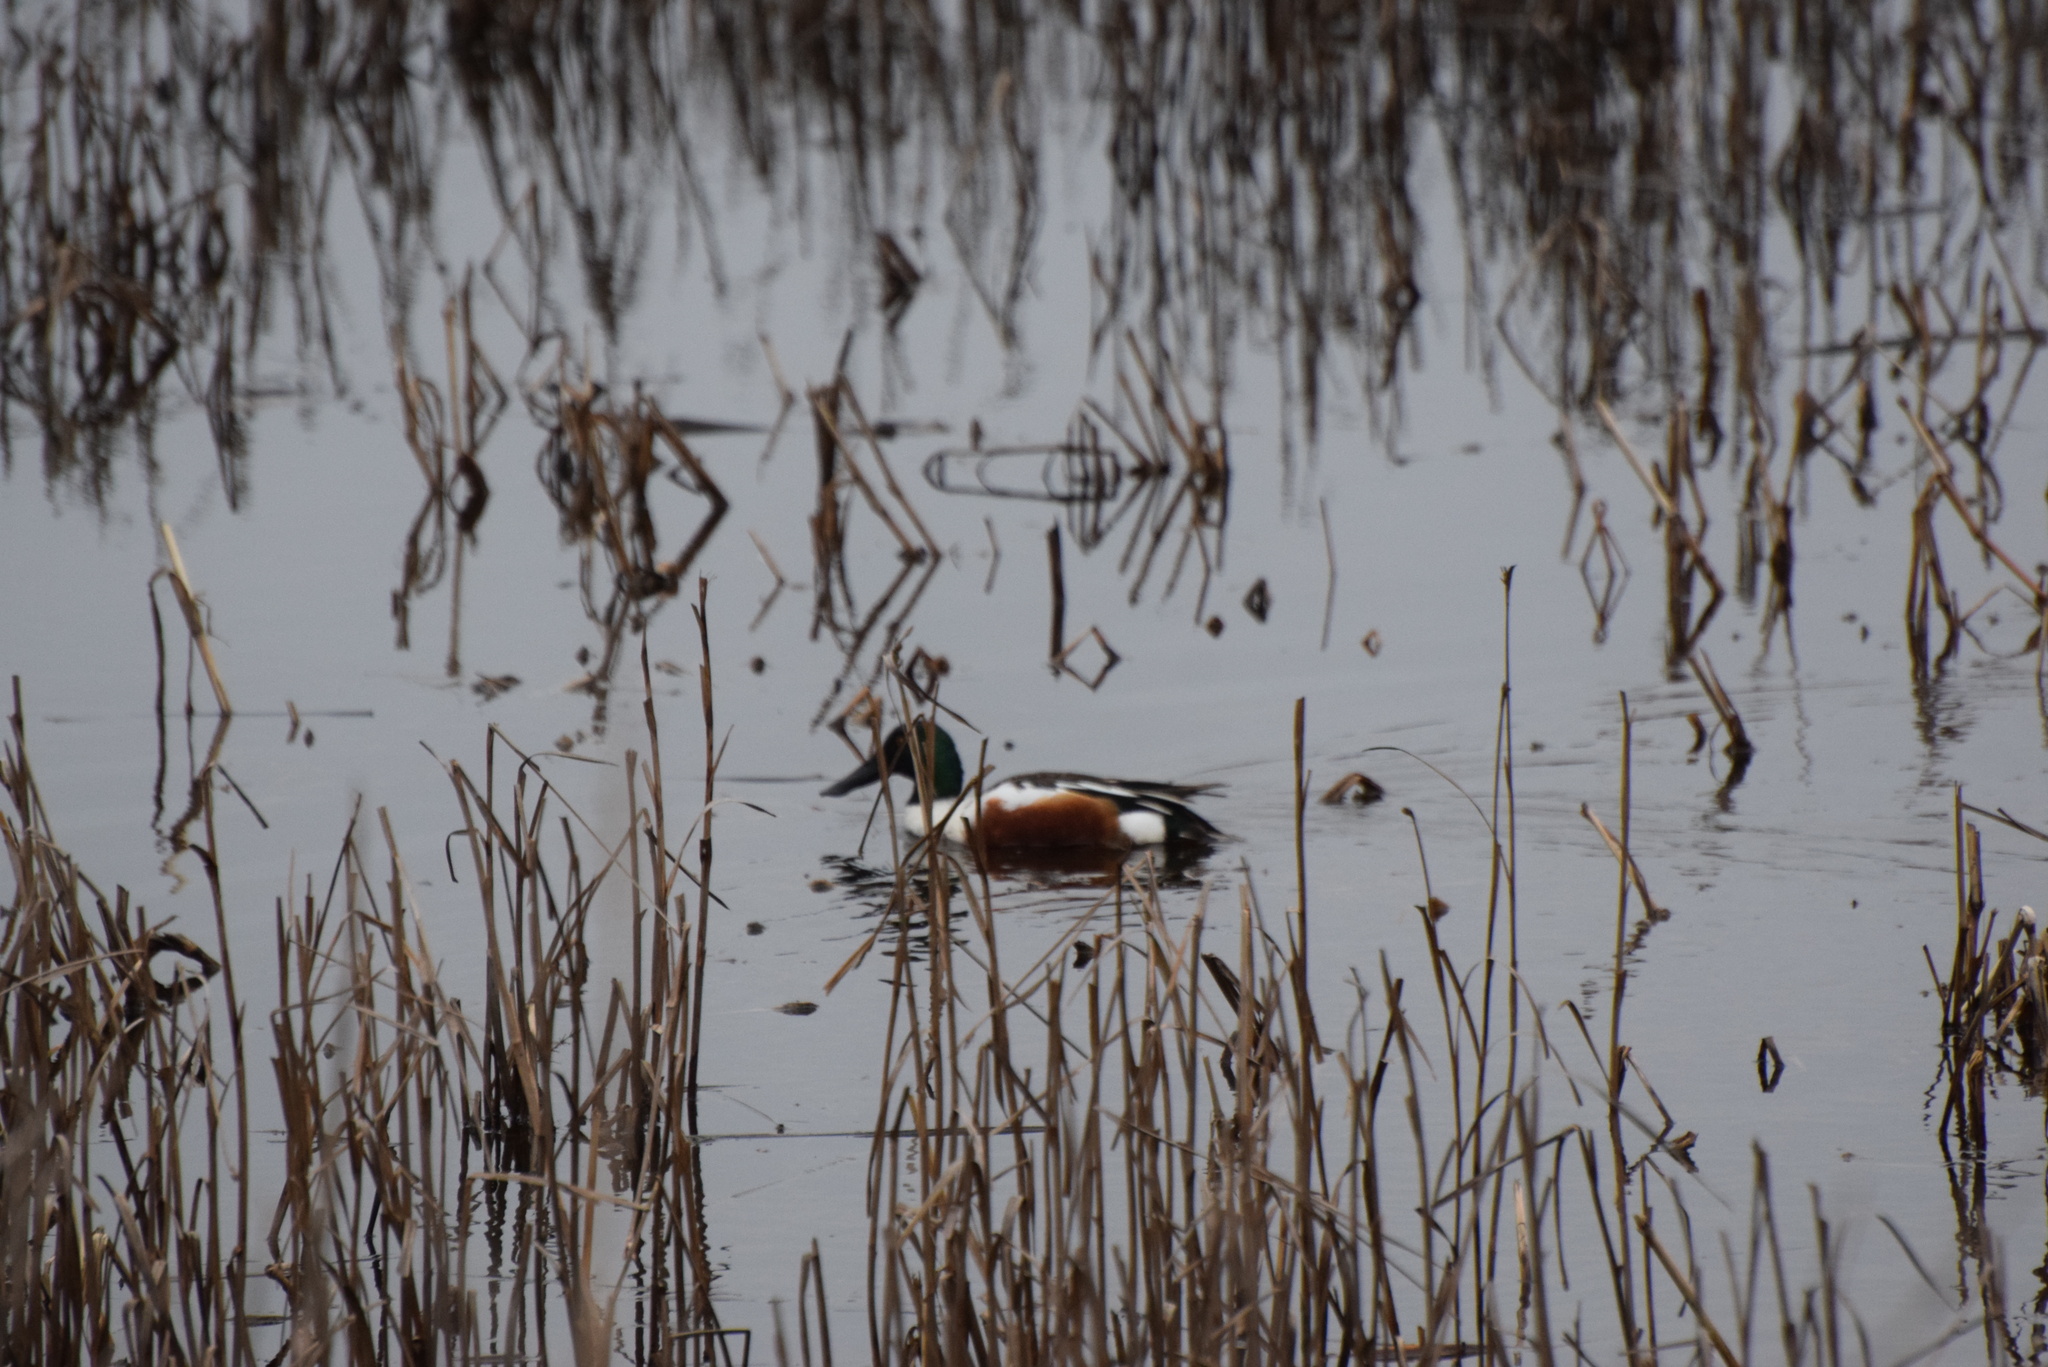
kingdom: Animalia
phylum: Chordata
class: Aves
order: Anseriformes
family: Anatidae
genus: Spatula
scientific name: Spatula clypeata
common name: Northern shoveler
